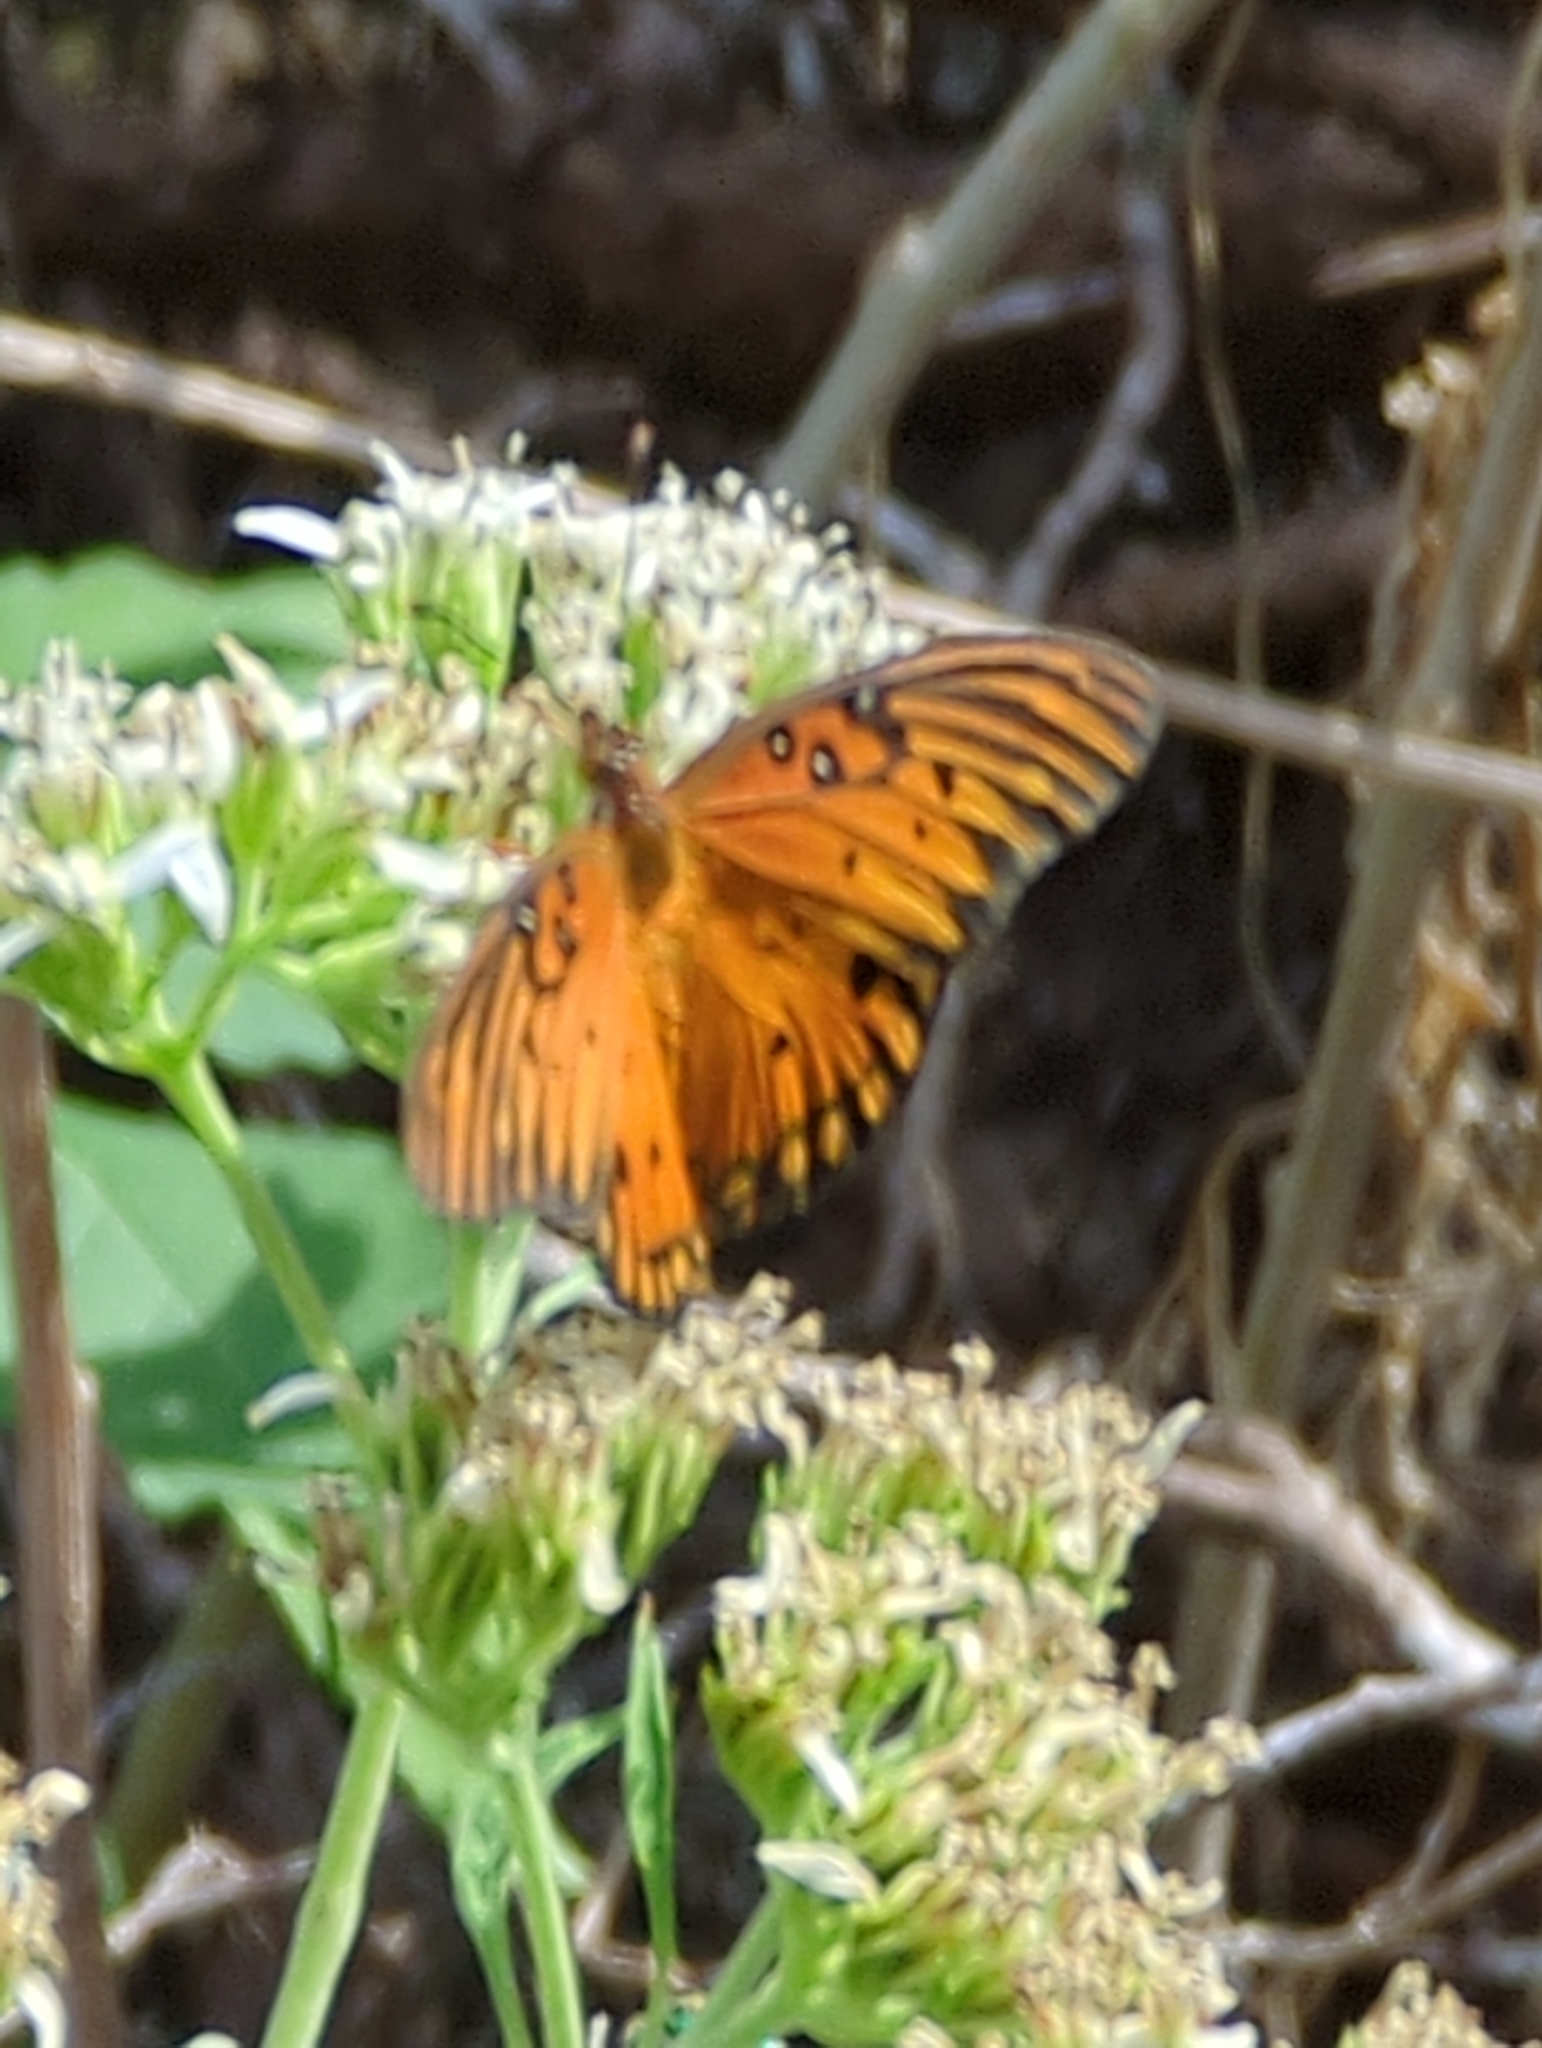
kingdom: Animalia
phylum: Arthropoda
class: Insecta
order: Lepidoptera
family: Nymphalidae
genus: Dione
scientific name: Dione vanillae
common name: Gulf fritillary
